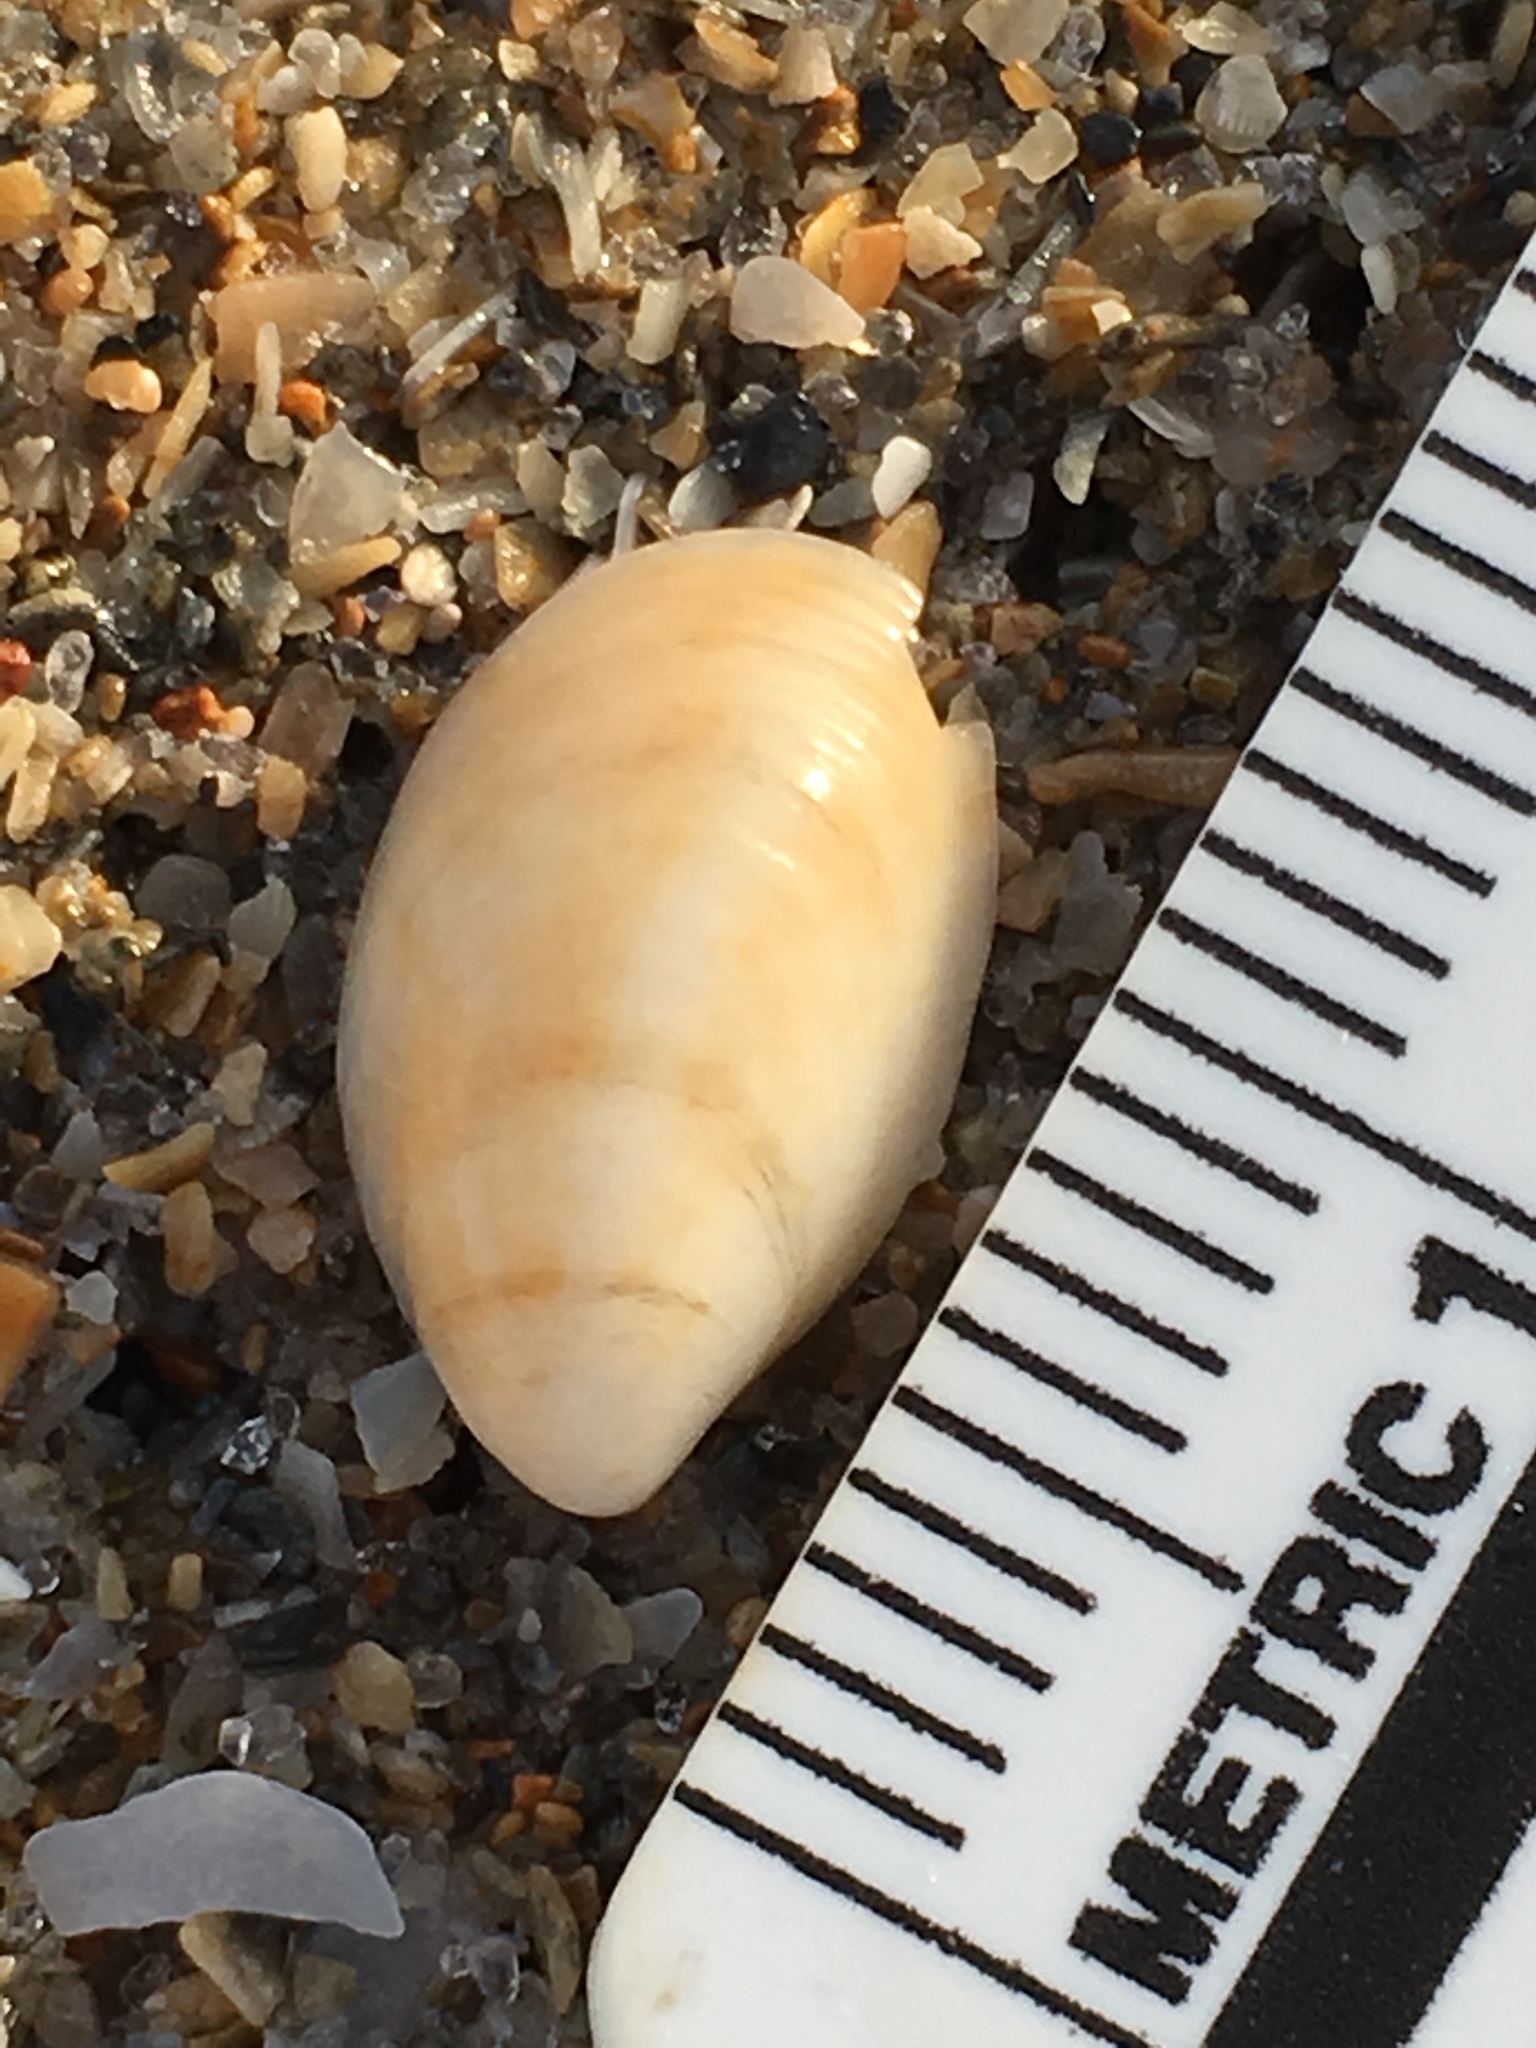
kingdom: Animalia
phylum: Mollusca
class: Gastropoda
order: Littorinimorpha
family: Calyptraeidae
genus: Crepidula
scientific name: Crepidula fornicata
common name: Slipper limpet
